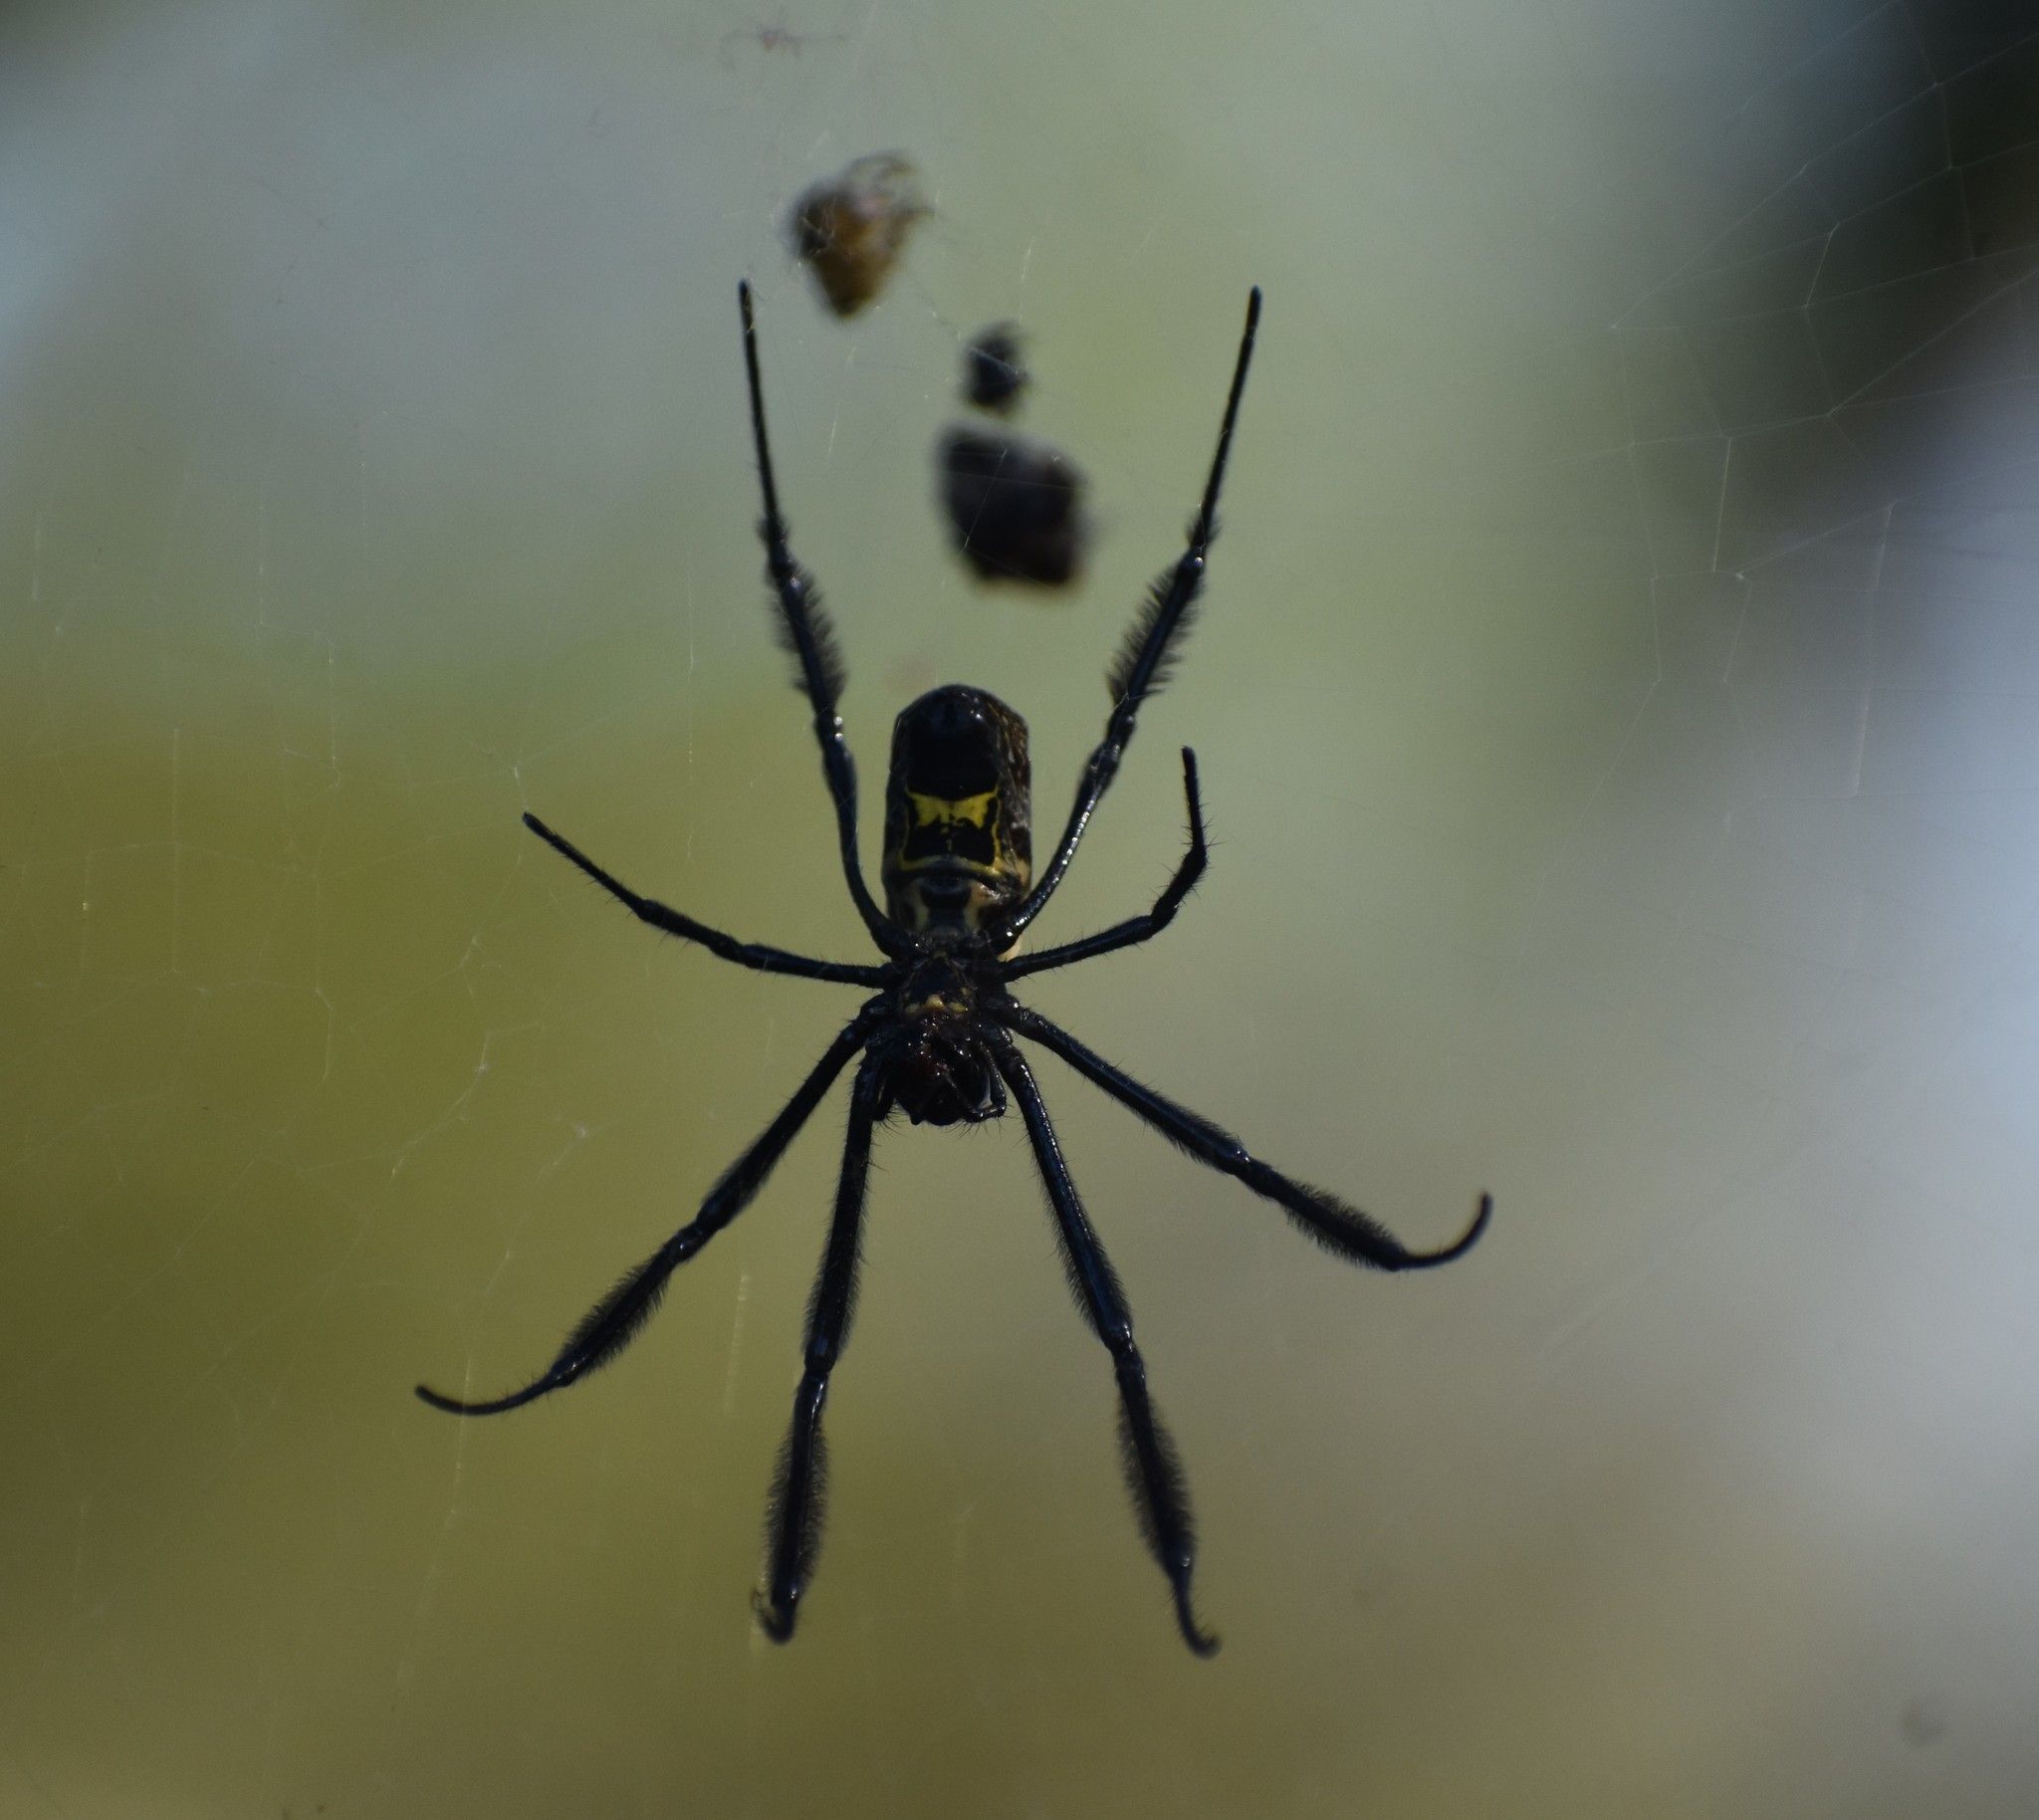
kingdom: Animalia
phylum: Arthropoda
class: Arachnida
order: Araneae
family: Araneidae
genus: Trichonephila
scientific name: Trichonephila fenestrata
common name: Hairy golden orb weaver
